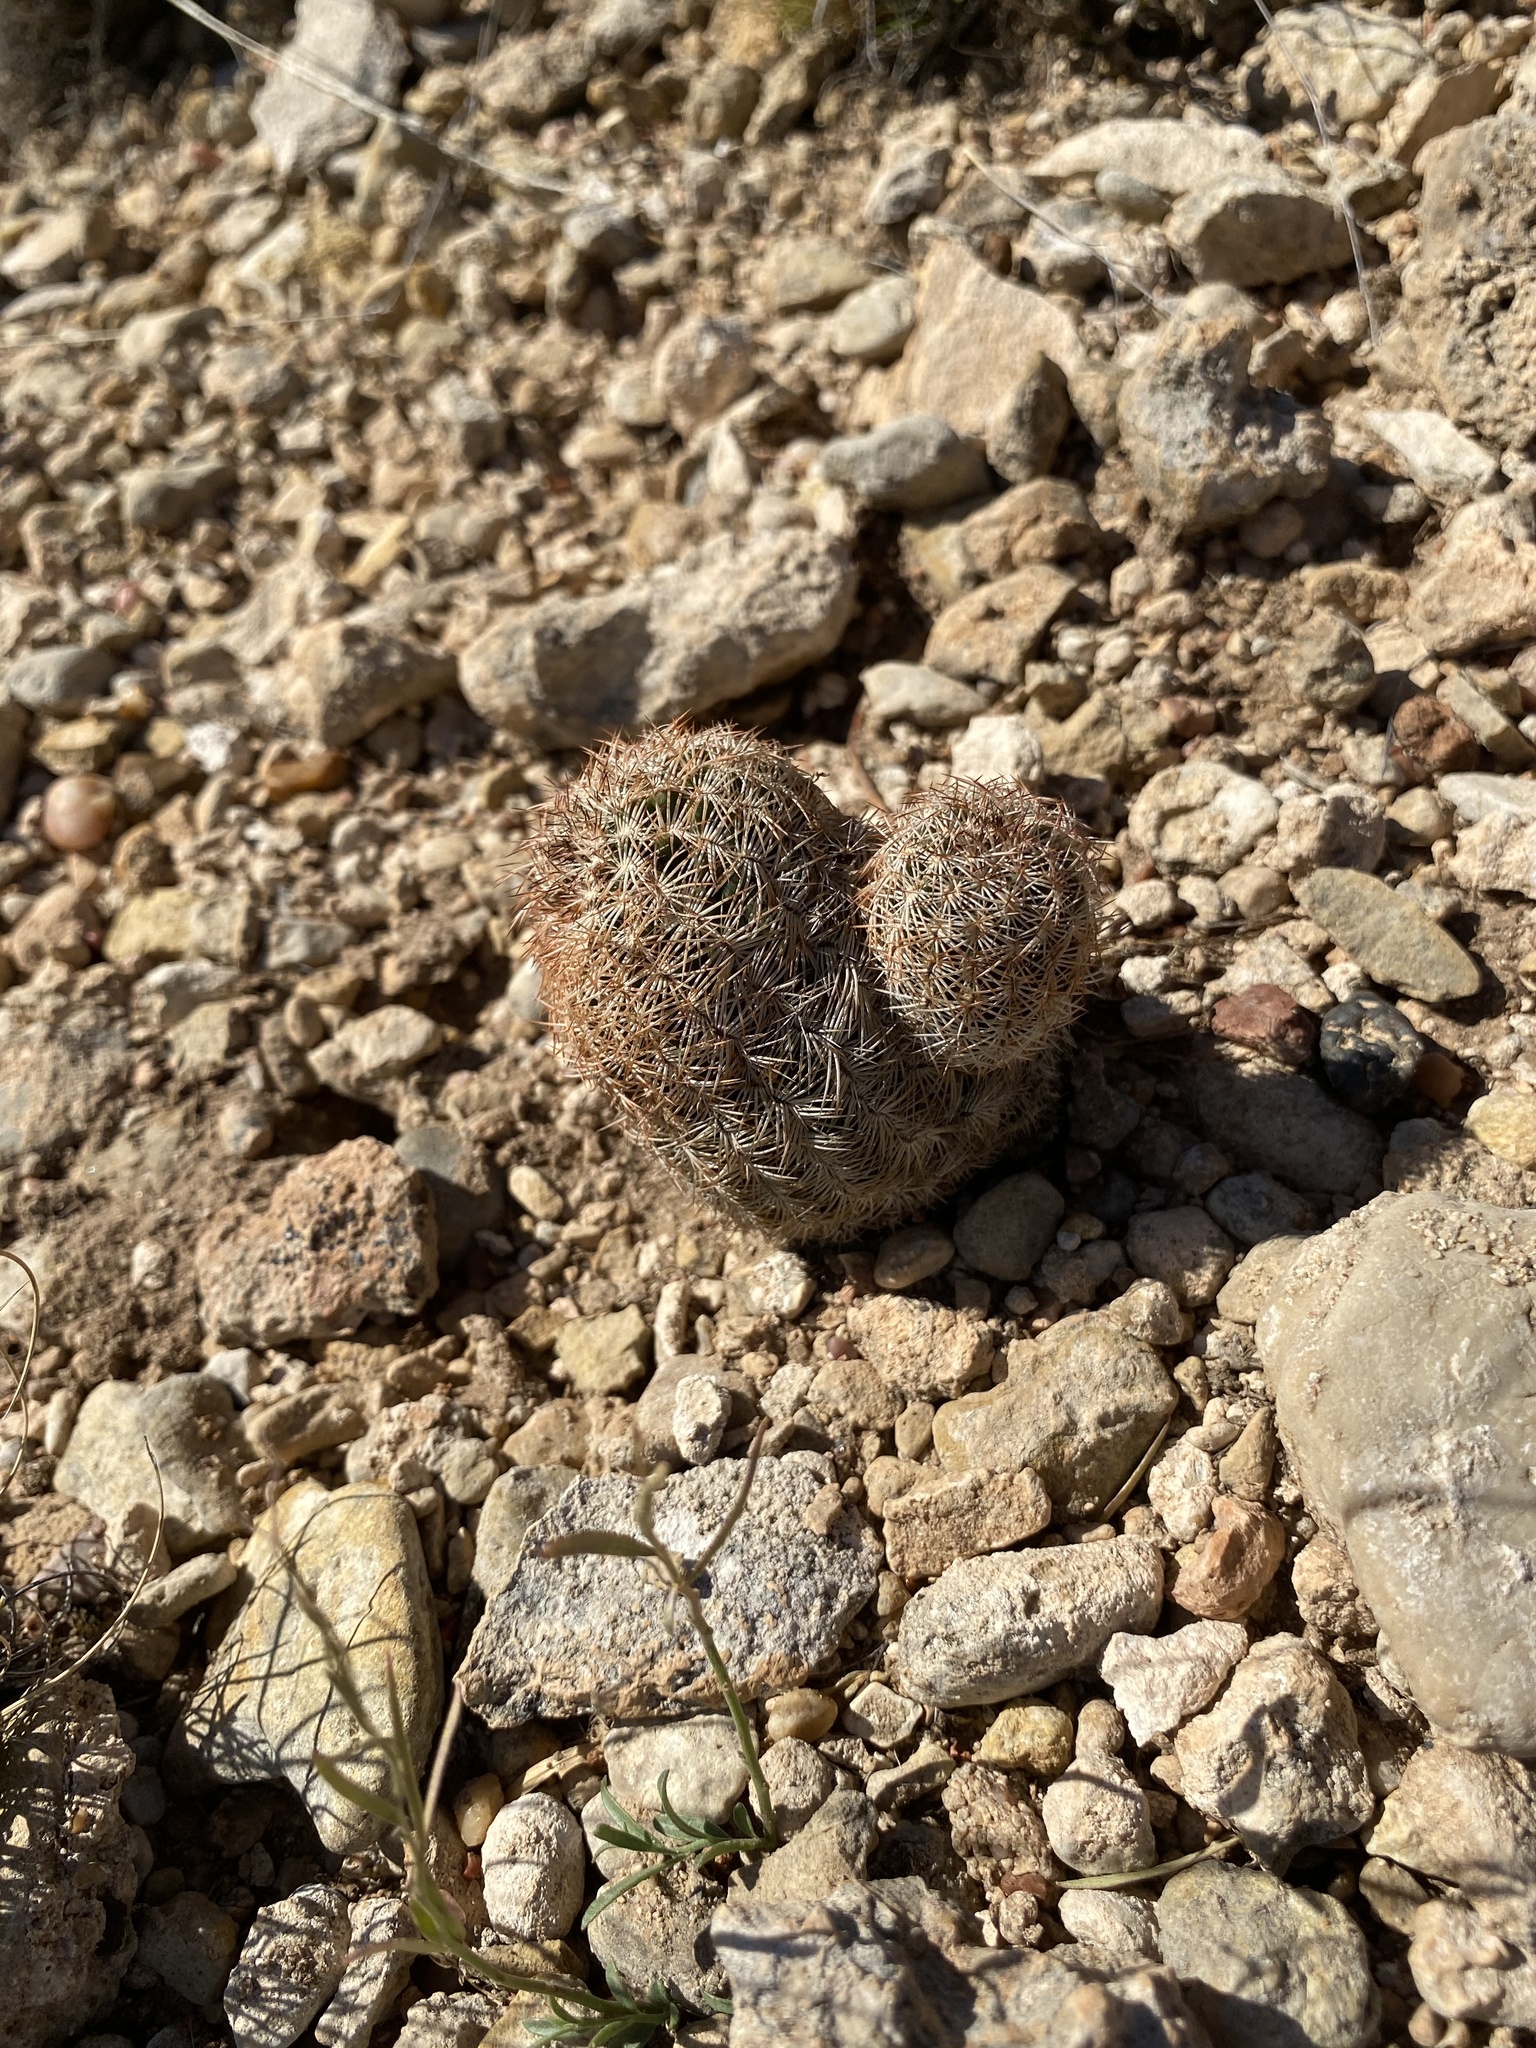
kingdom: Plantae
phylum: Tracheophyta
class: Magnoliopsida
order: Caryophyllales
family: Cactaceae
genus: Echinocereus
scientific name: Echinocereus reichenbachii
